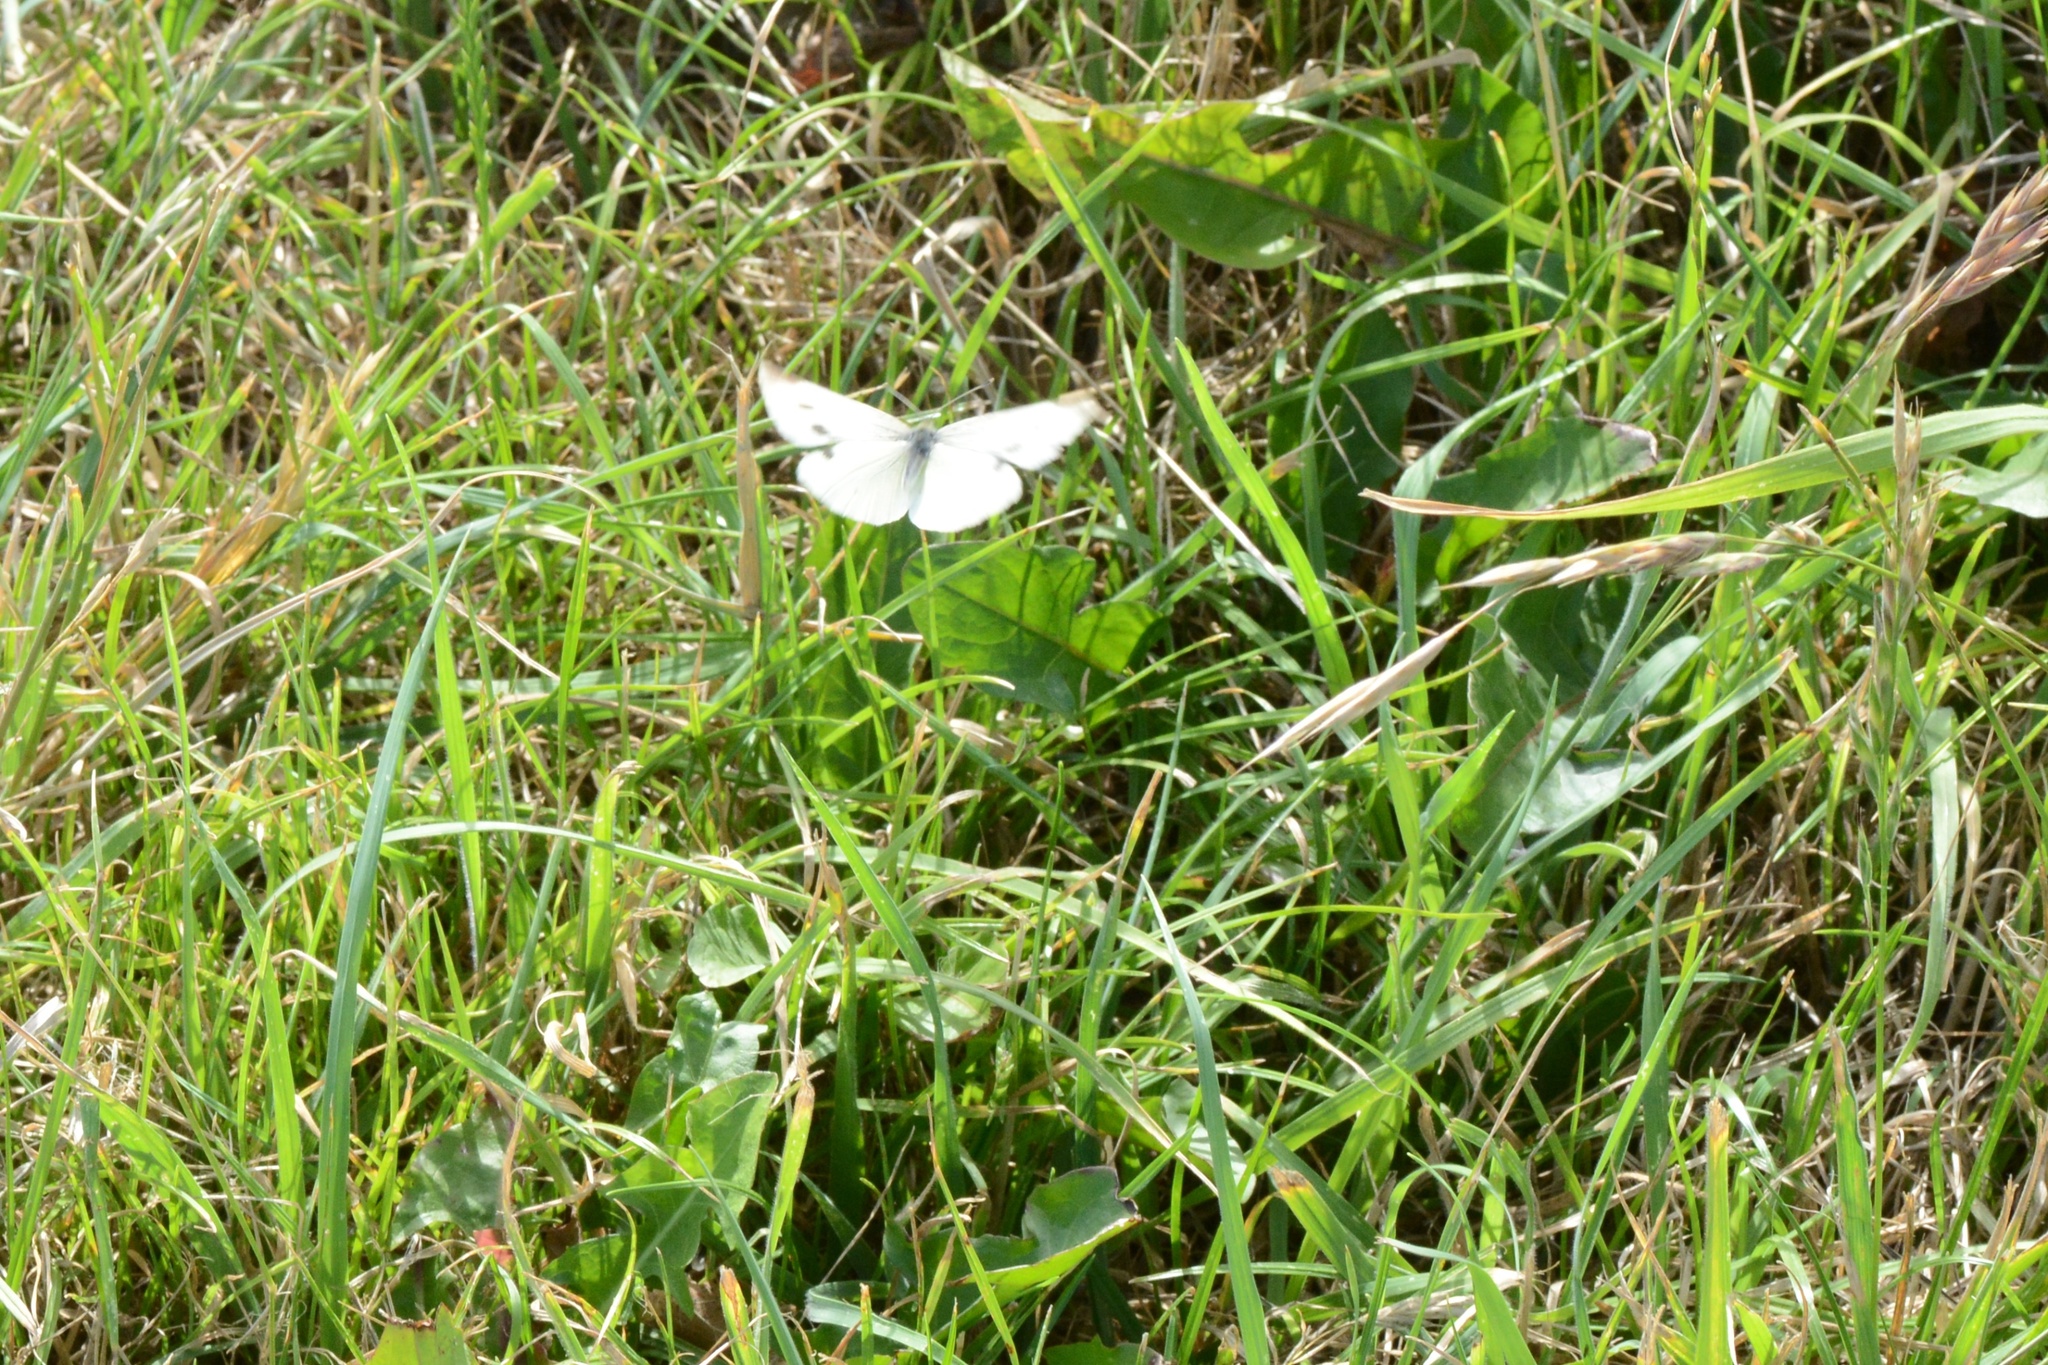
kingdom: Animalia
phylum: Arthropoda
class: Insecta
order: Lepidoptera
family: Pieridae
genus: Pieris
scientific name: Pieris rapae
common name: Small white
